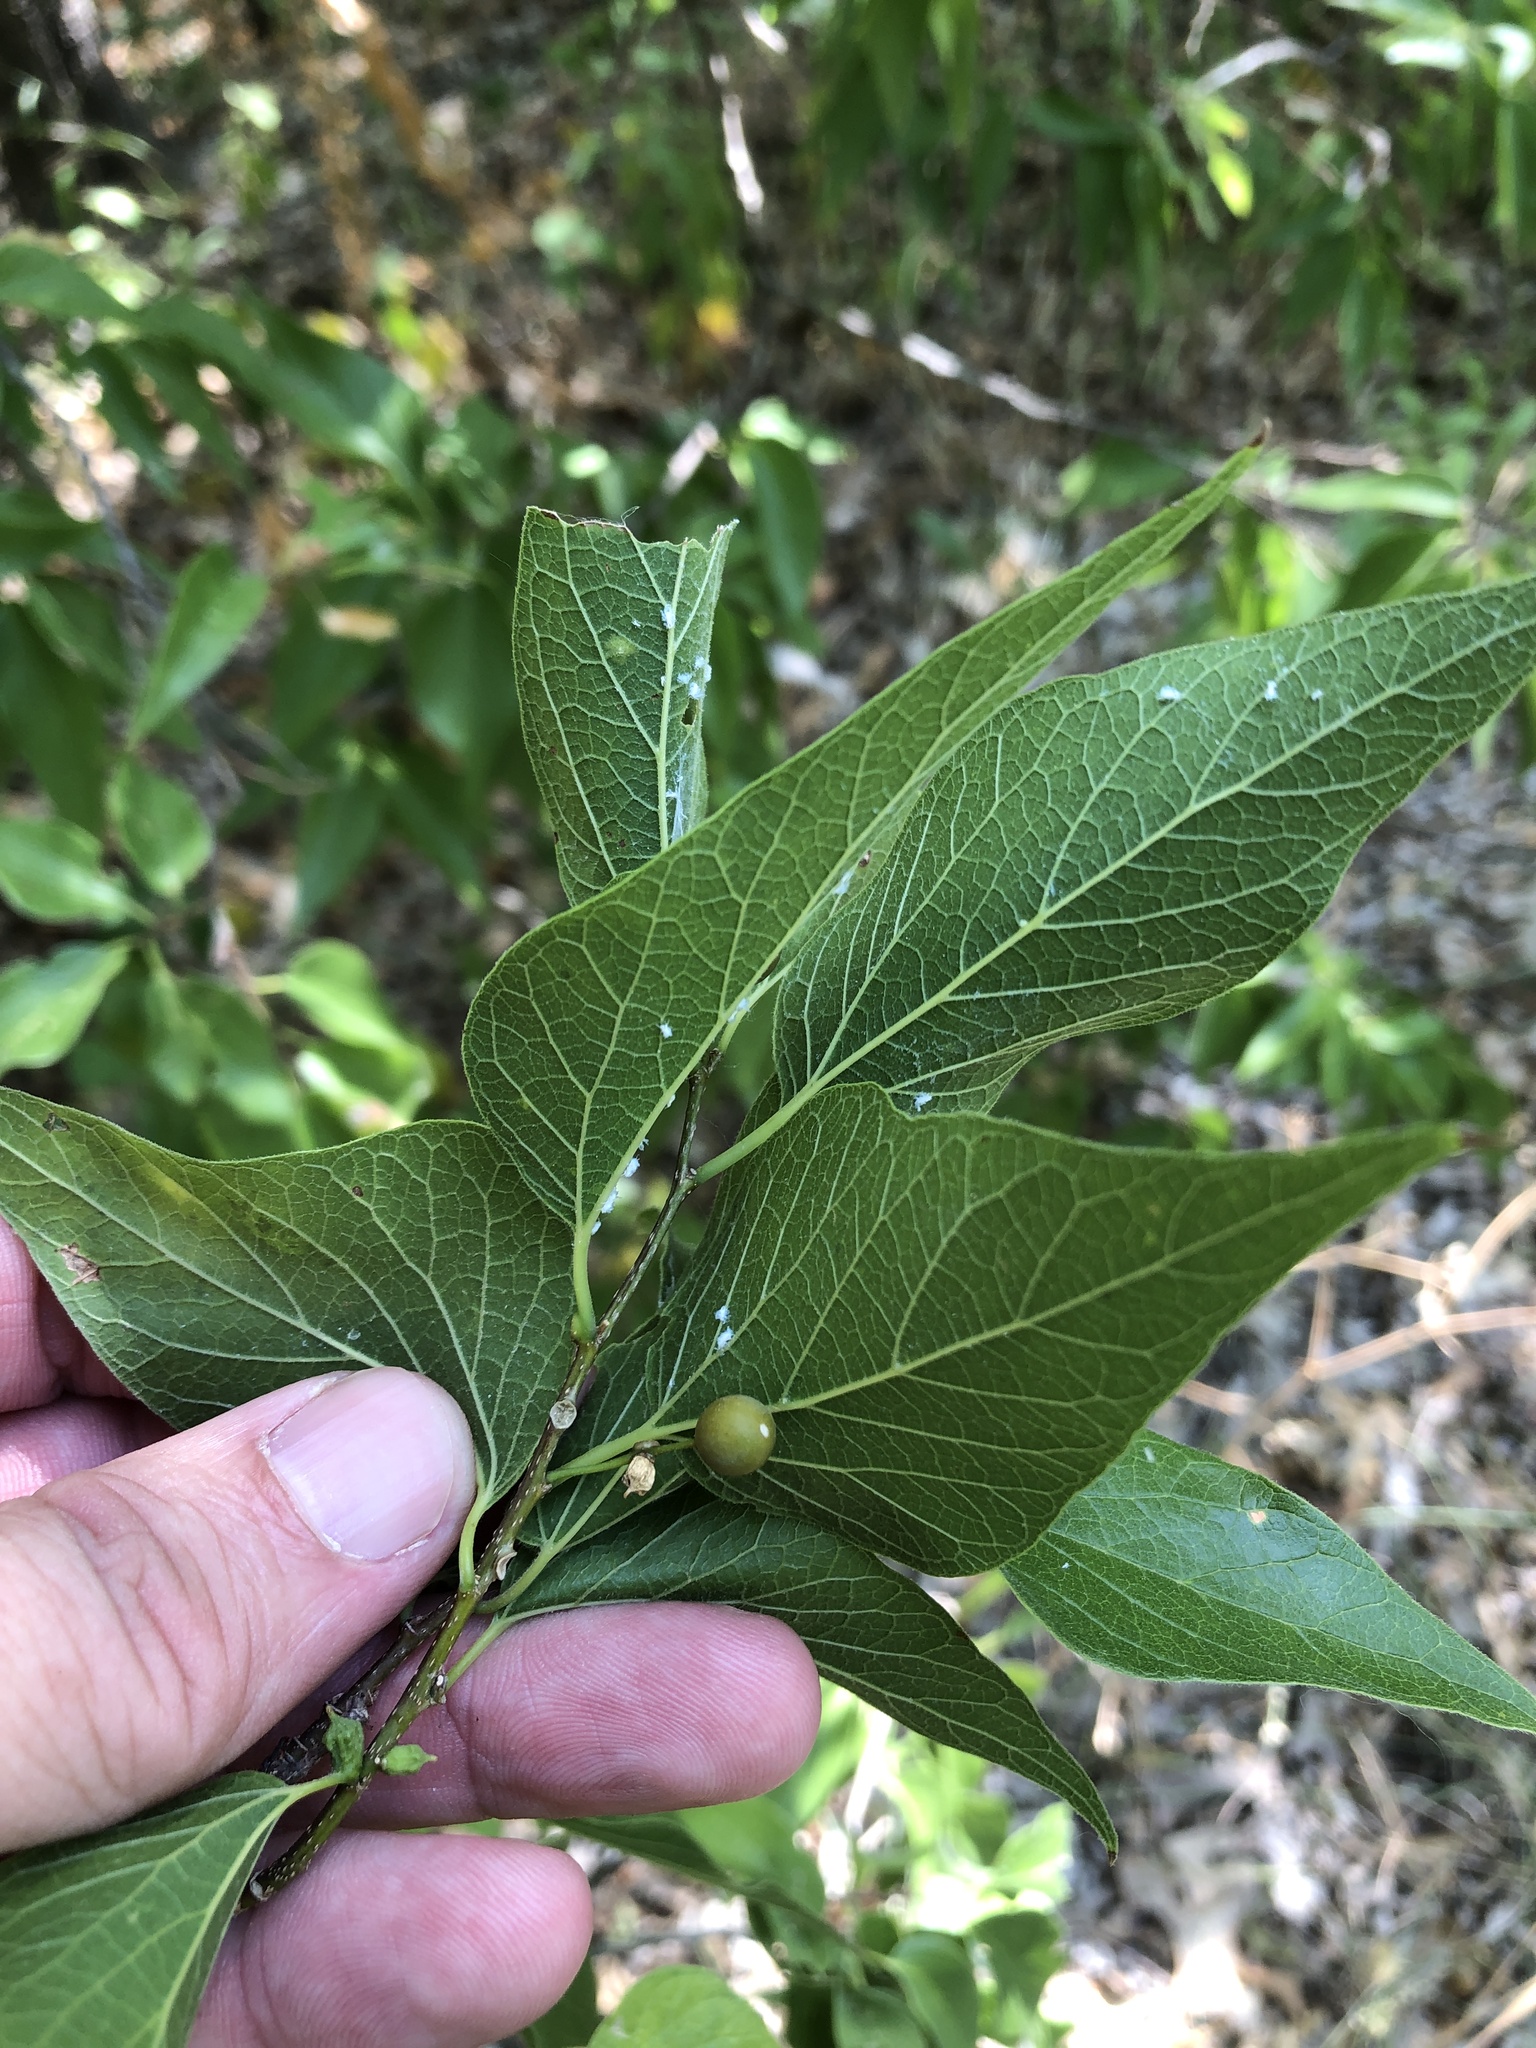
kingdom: Plantae
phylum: Tracheophyta
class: Magnoliopsida
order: Rosales
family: Cannabaceae
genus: Celtis
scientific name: Celtis laevigata
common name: Sugarberry
